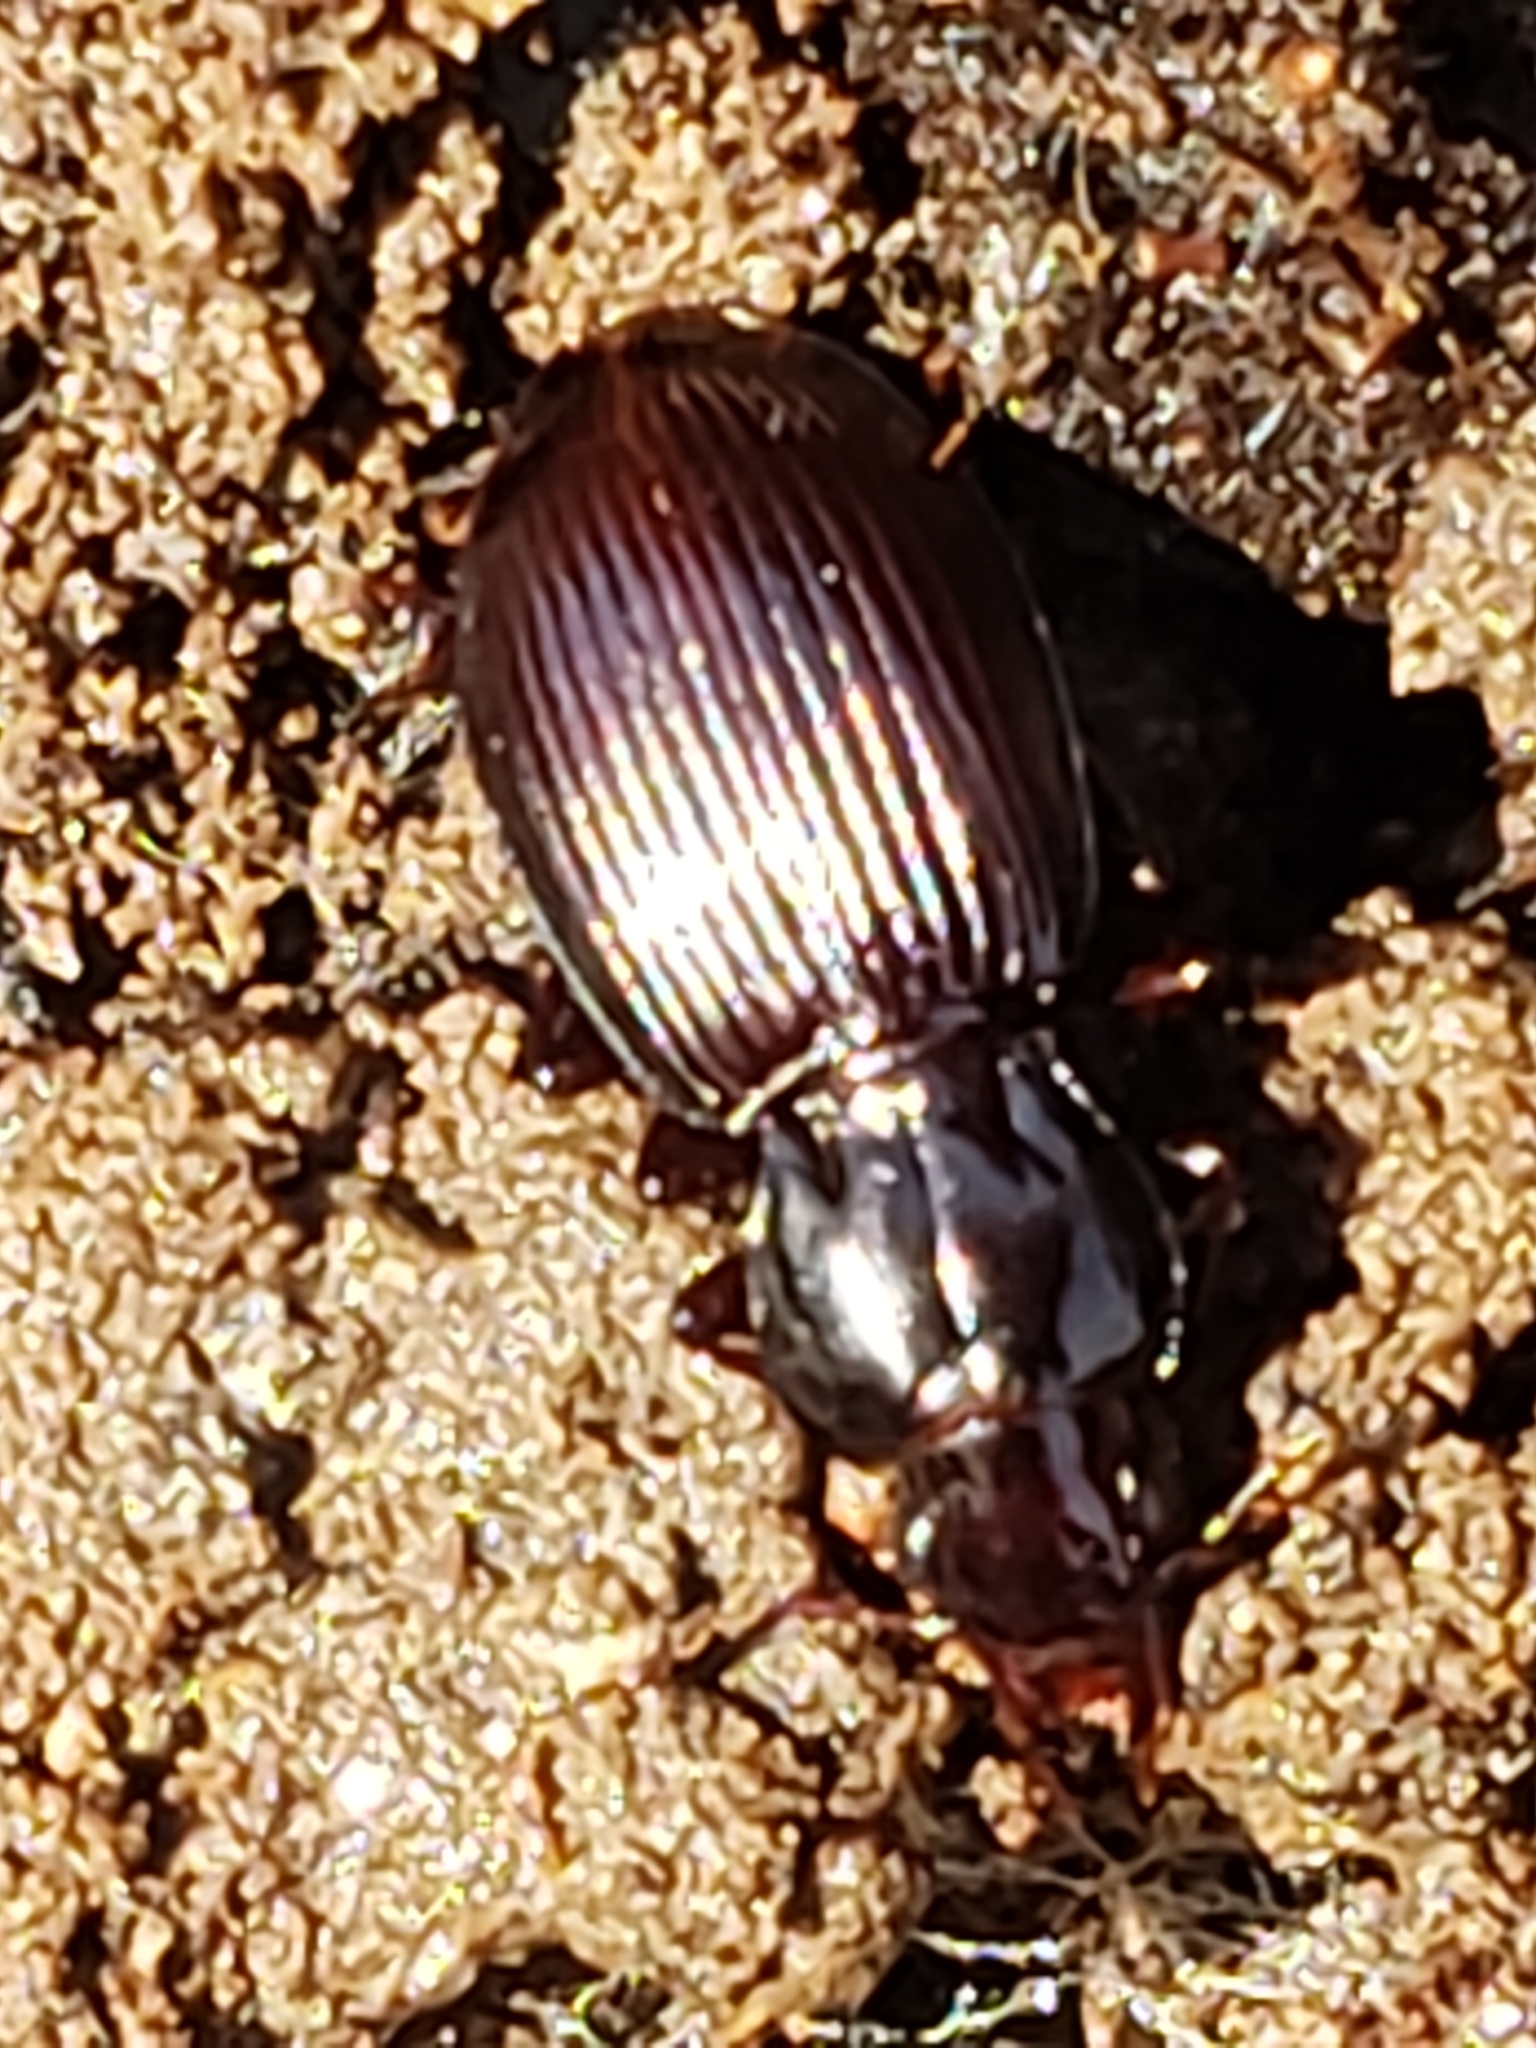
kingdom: Animalia
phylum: Arthropoda
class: Insecta
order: Coleoptera
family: Carabidae
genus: Gastrellarius
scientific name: Gastrellarius honestus
